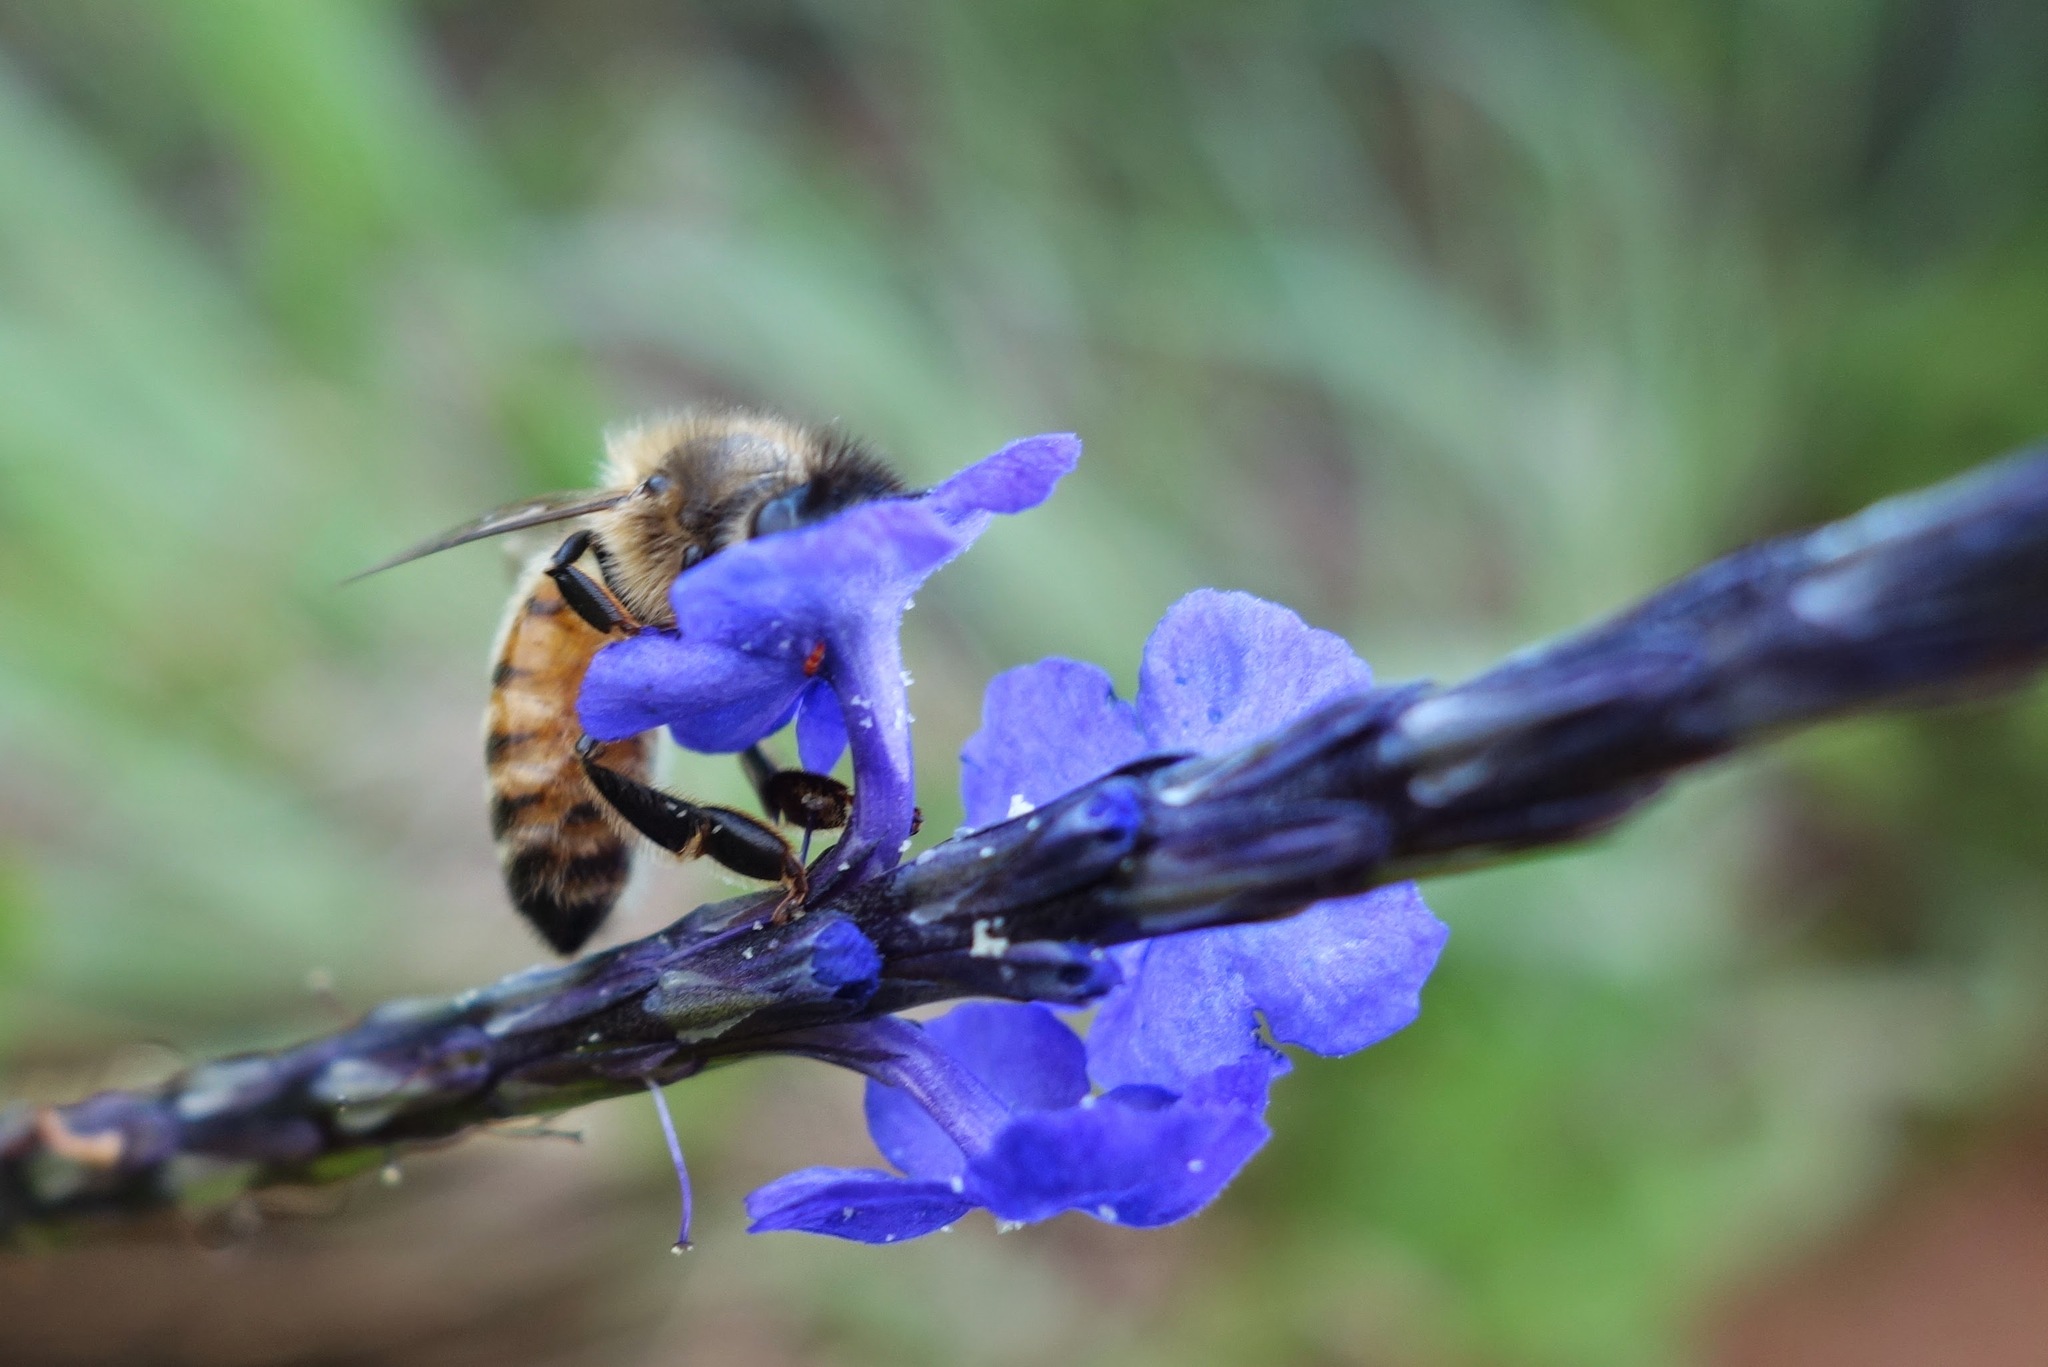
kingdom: Animalia
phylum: Arthropoda
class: Insecta
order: Hymenoptera
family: Apidae
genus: Apis
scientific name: Apis mellifera
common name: Honey bee
